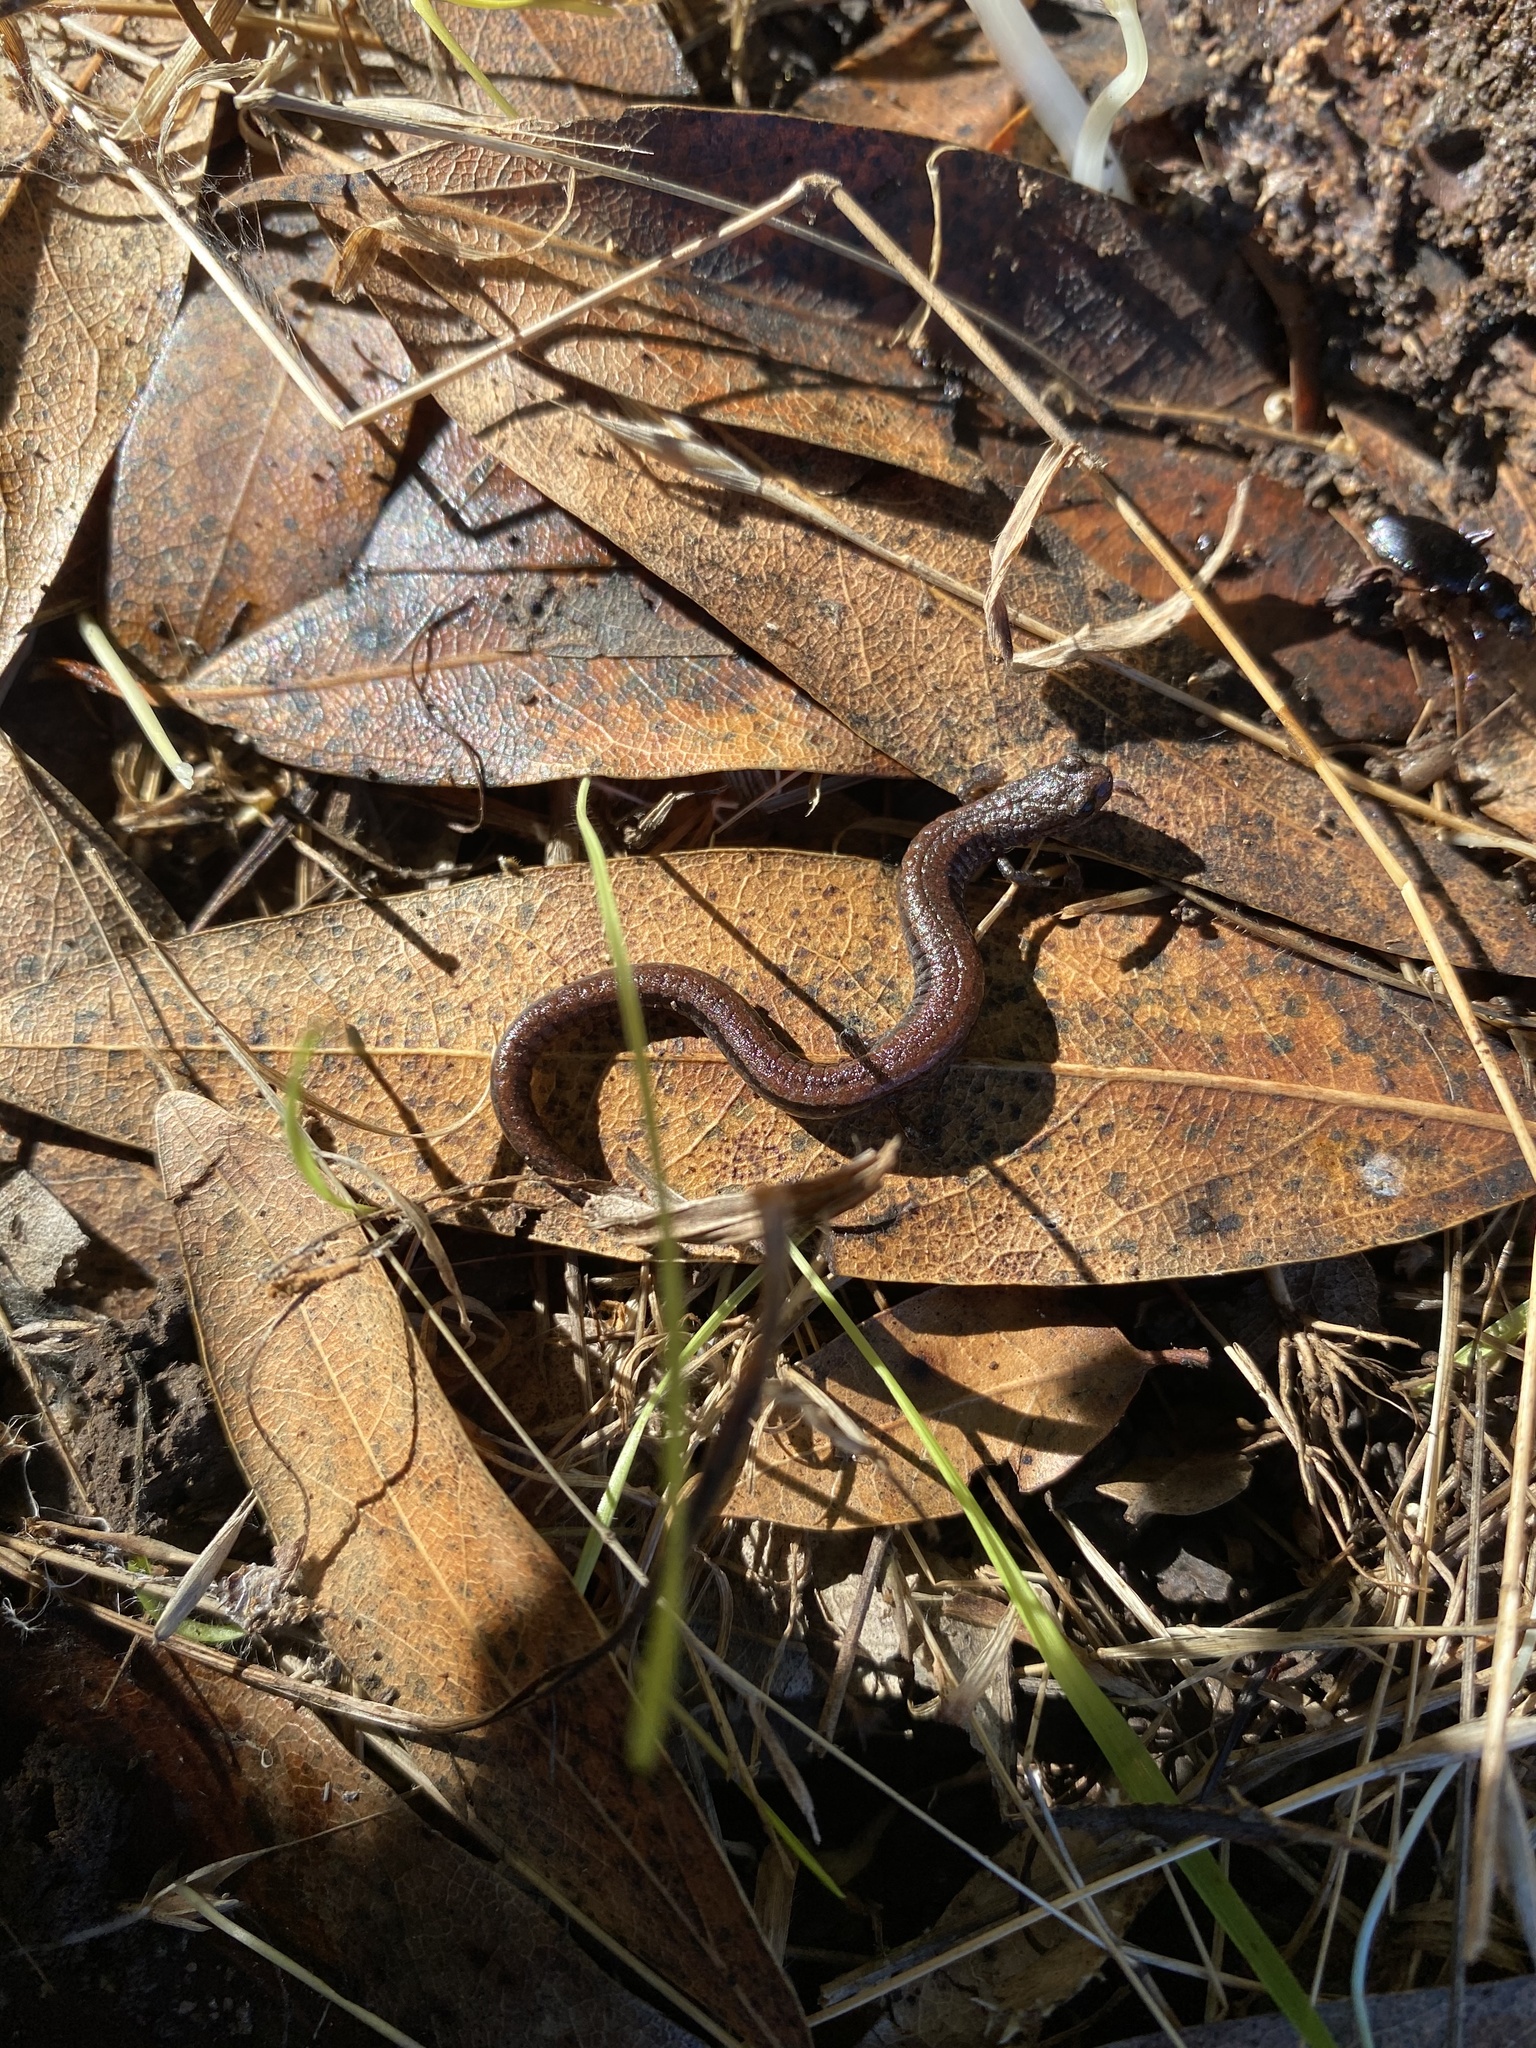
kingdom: Animalia
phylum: Chordata
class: Amphibia
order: Caudata
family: Plethodontidae
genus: Batrachoseps
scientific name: Batrachoseps attenuatus
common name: California slender salamander
